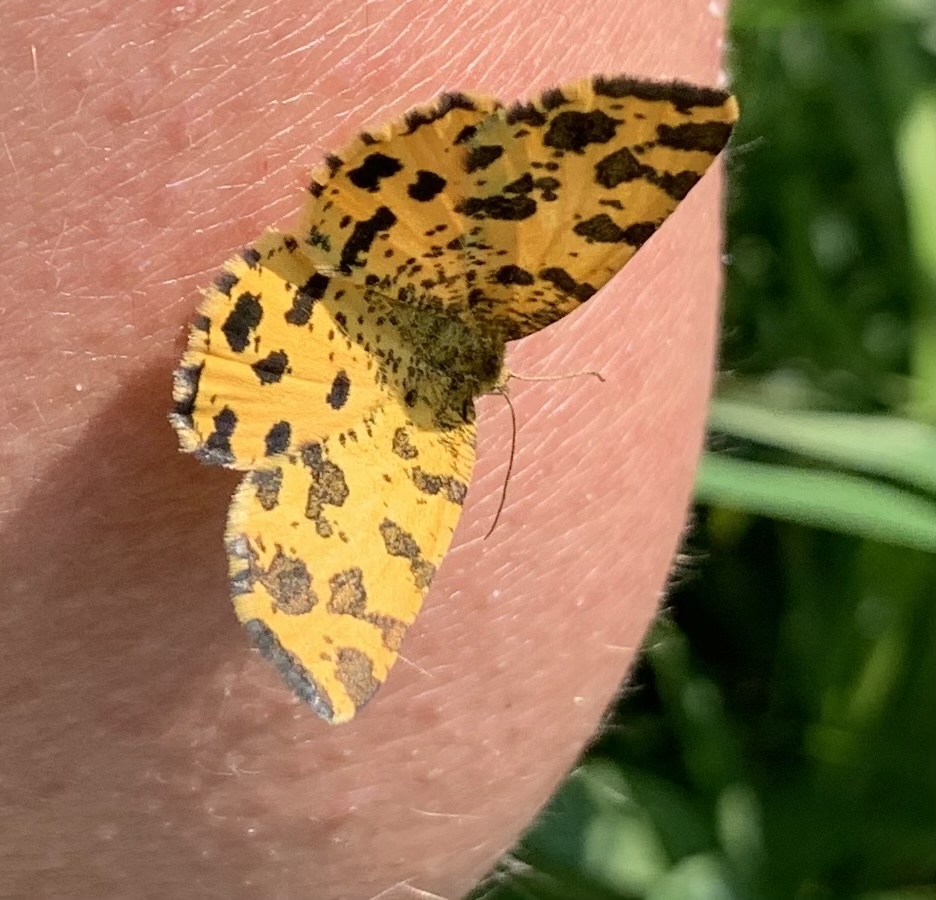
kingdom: Animalia
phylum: Arthropoda
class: Insecta
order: Lepidoptera
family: Geometridae
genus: Pseudopanthera
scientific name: Pseudopanthera macularia
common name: Speckled yellow
